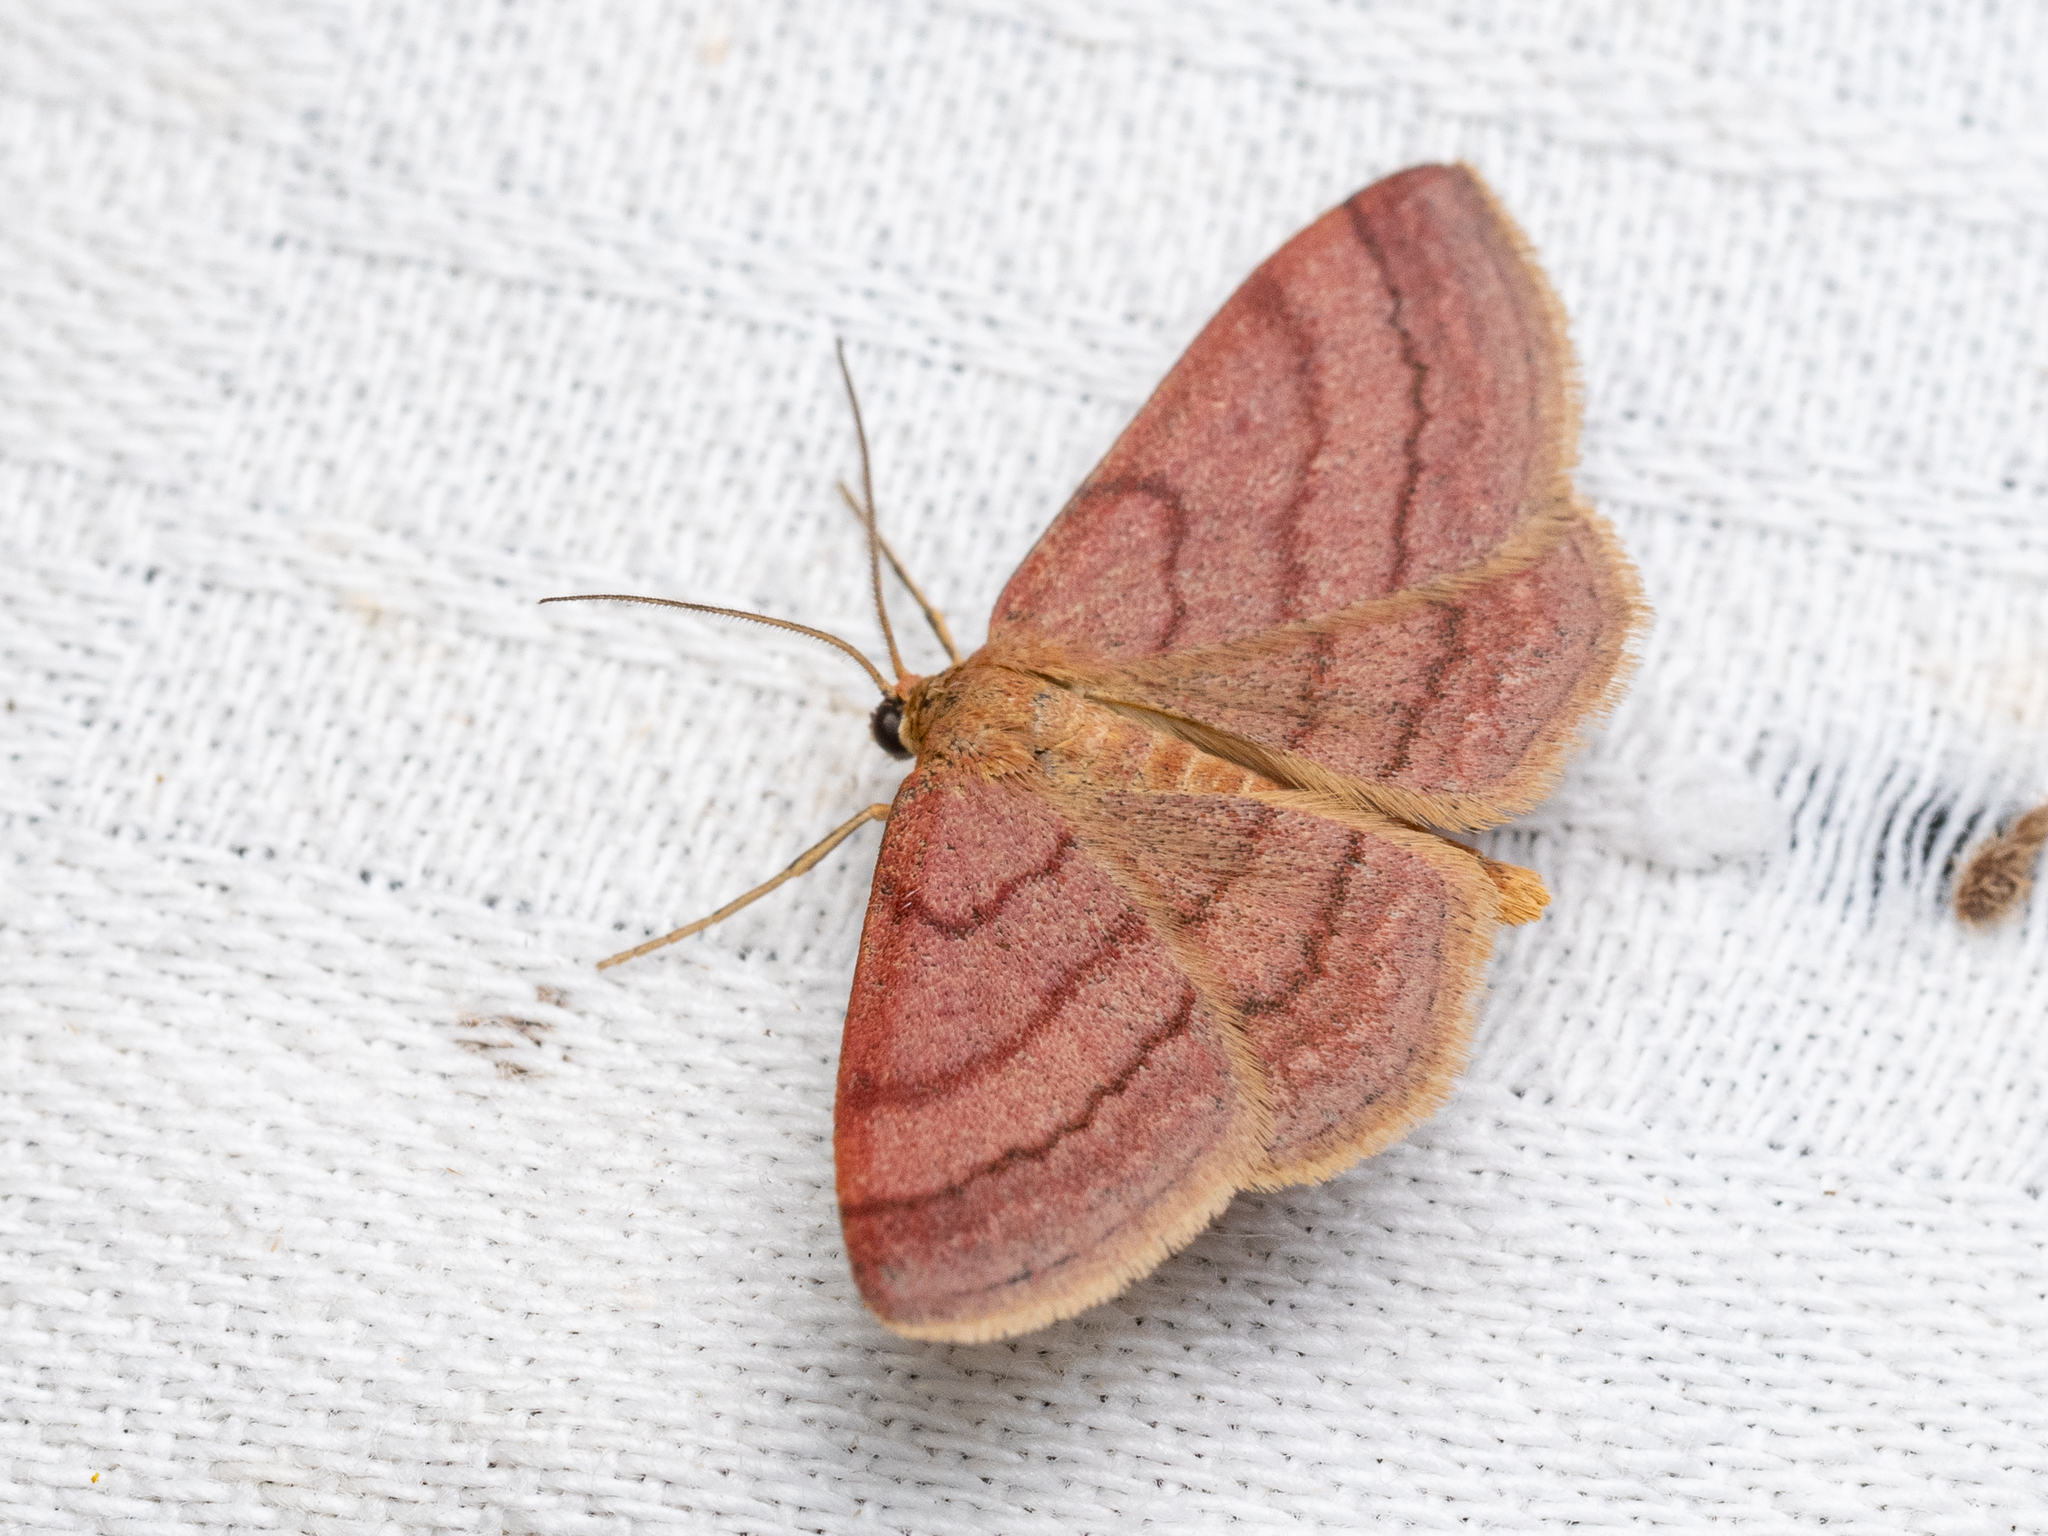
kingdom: Animalia
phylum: Arthropoda
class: Insecta
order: Lepidoptera
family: Geometridae
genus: Scopula
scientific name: Scopula rubiginata
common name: Tawny wave
